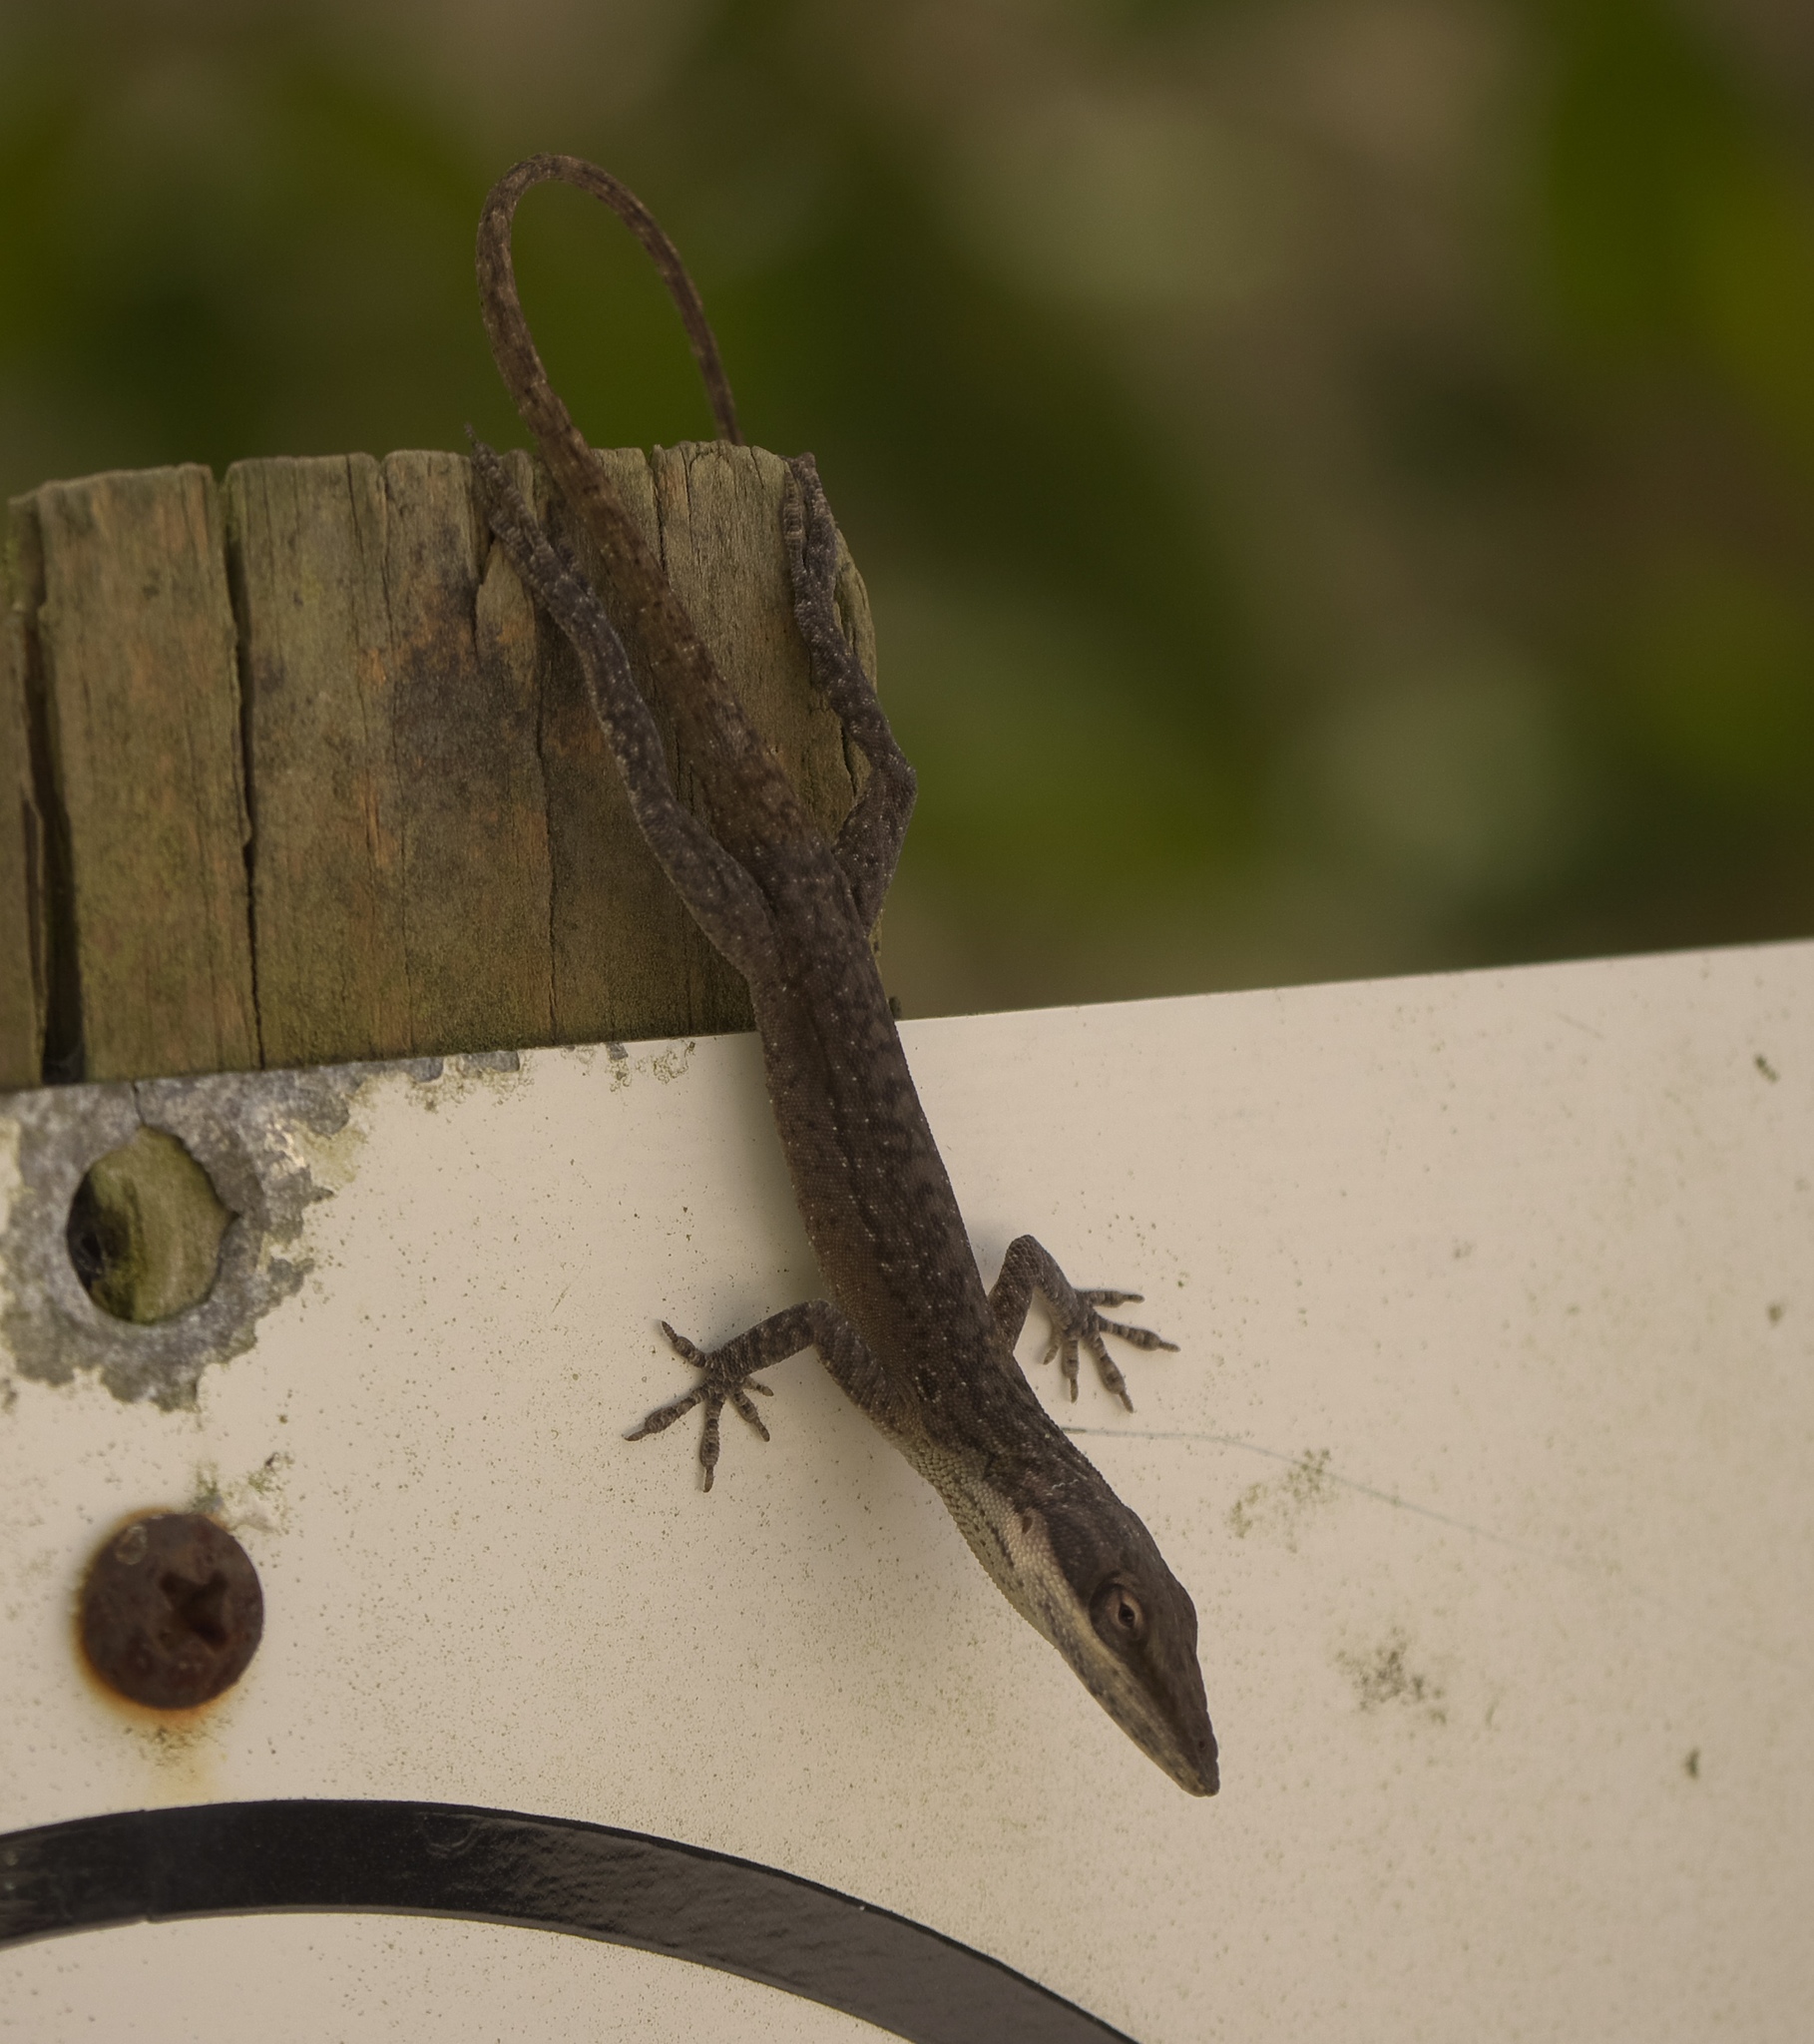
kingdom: Animalia
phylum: Chordata
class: Squamata
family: Dactyloidae
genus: Anolis
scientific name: Anolis carolinensis
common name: Green anole
